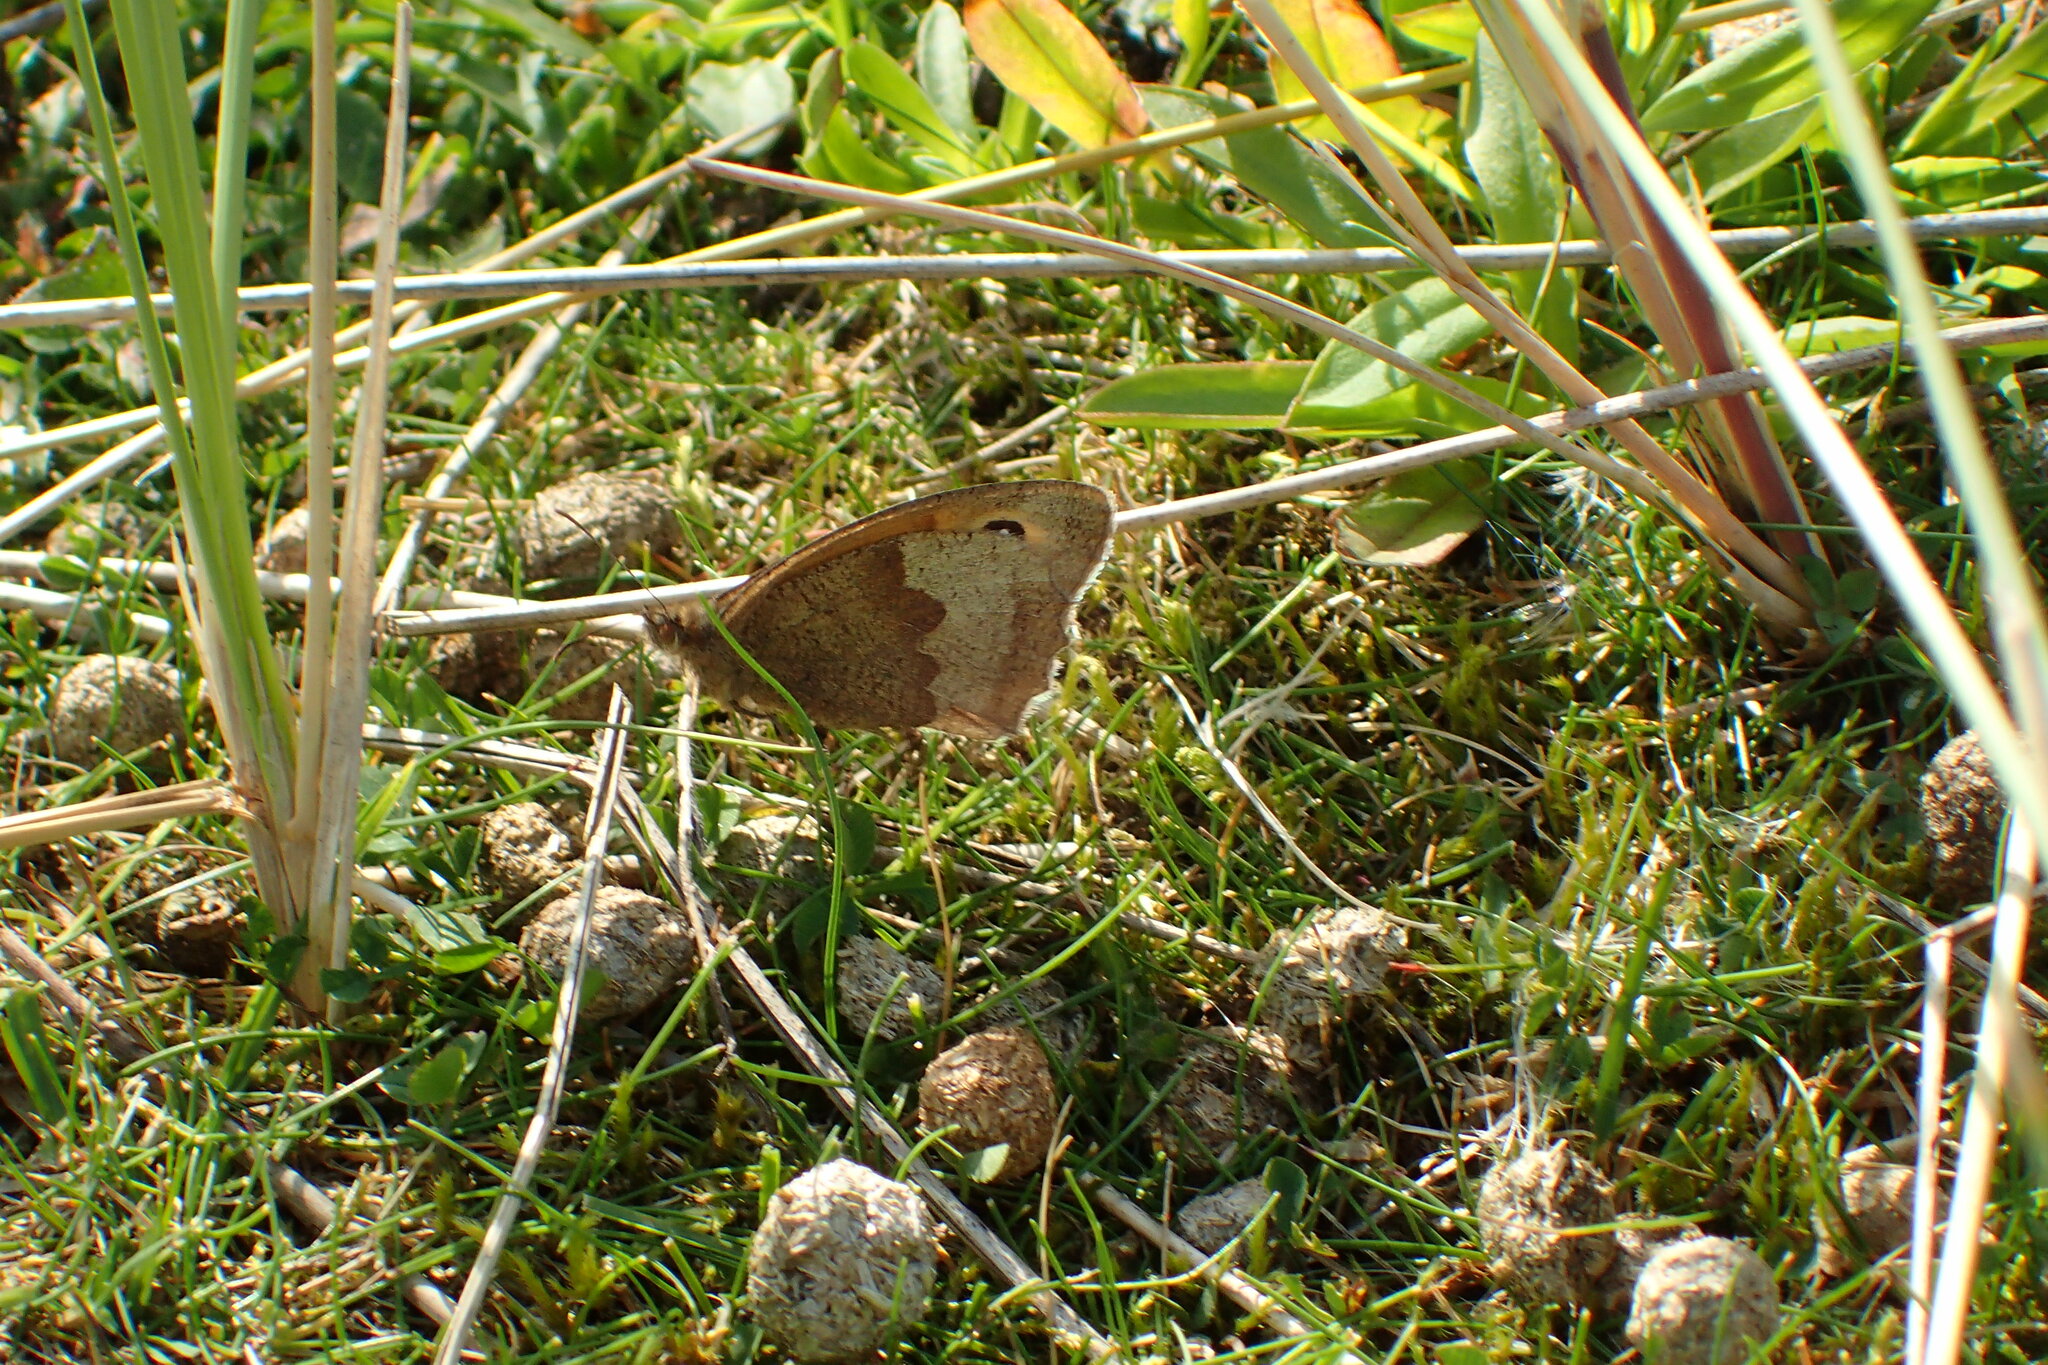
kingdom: Animalia
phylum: Arthropoda
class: Insecta
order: Lepidoptera
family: Nymphalidae
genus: Maniola
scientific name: Maniola jurtina
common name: Meadow brown
